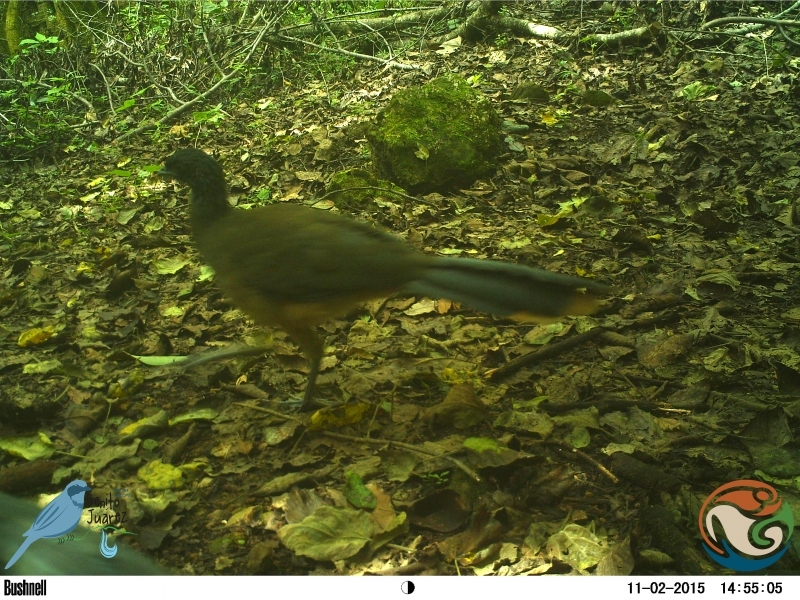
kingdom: Animalia
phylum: Chordata
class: Aves
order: Galliformes
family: Cracidae
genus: Ortalis
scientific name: Ortalis poliocephala
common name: West mexican chachalaca
